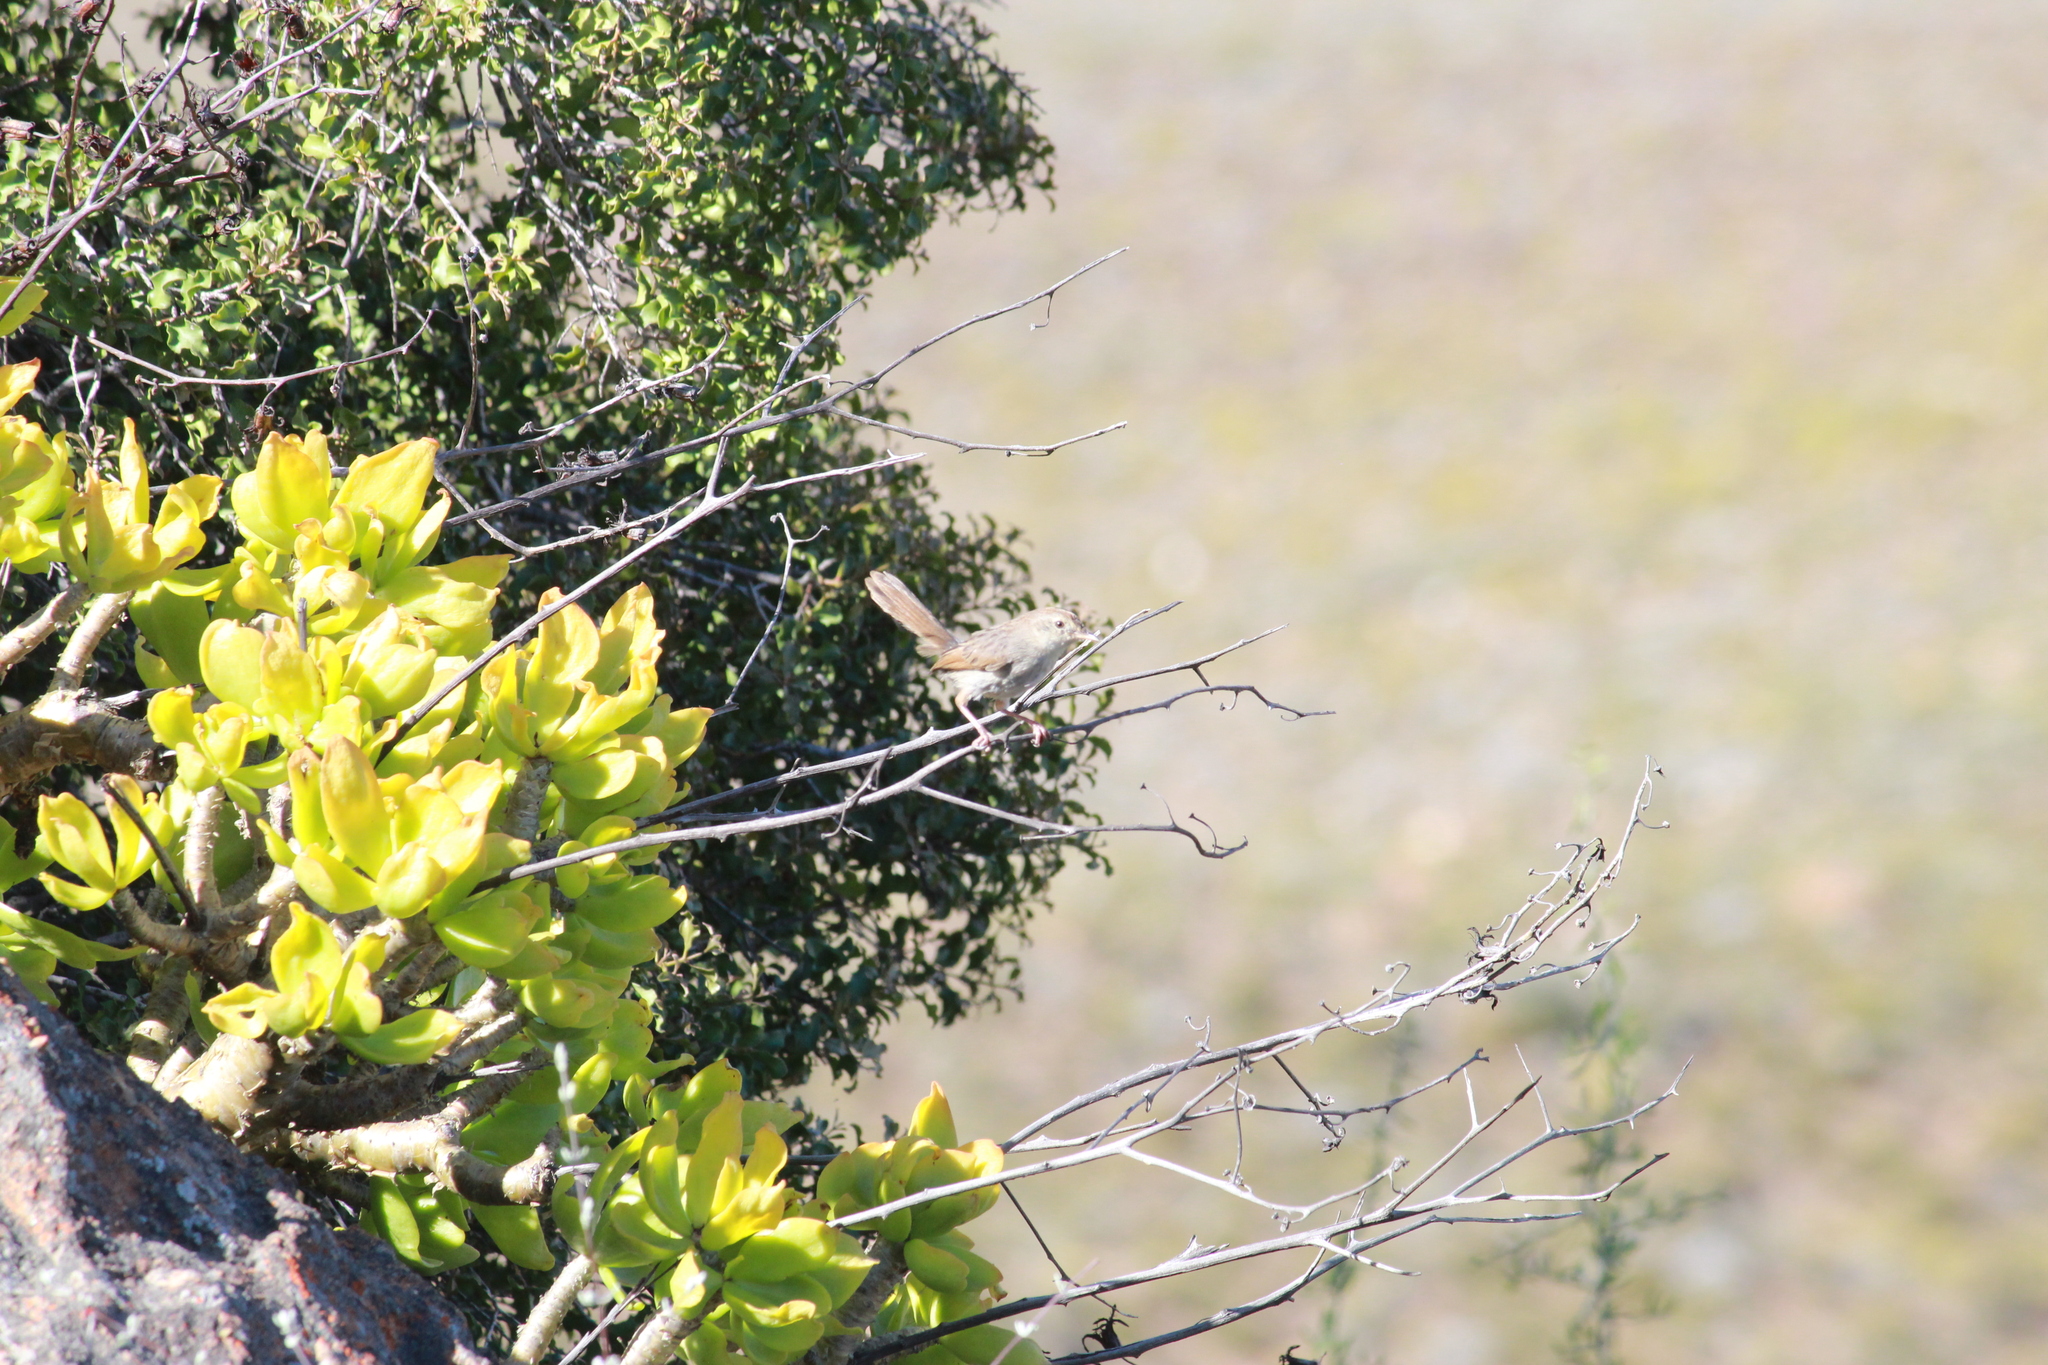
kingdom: Animalia
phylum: Chordata
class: Aves
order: Passeriformes
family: Cisticolidae
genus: Cisticola
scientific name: Cisticola subruficapilla
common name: Grey-backed cisticola
